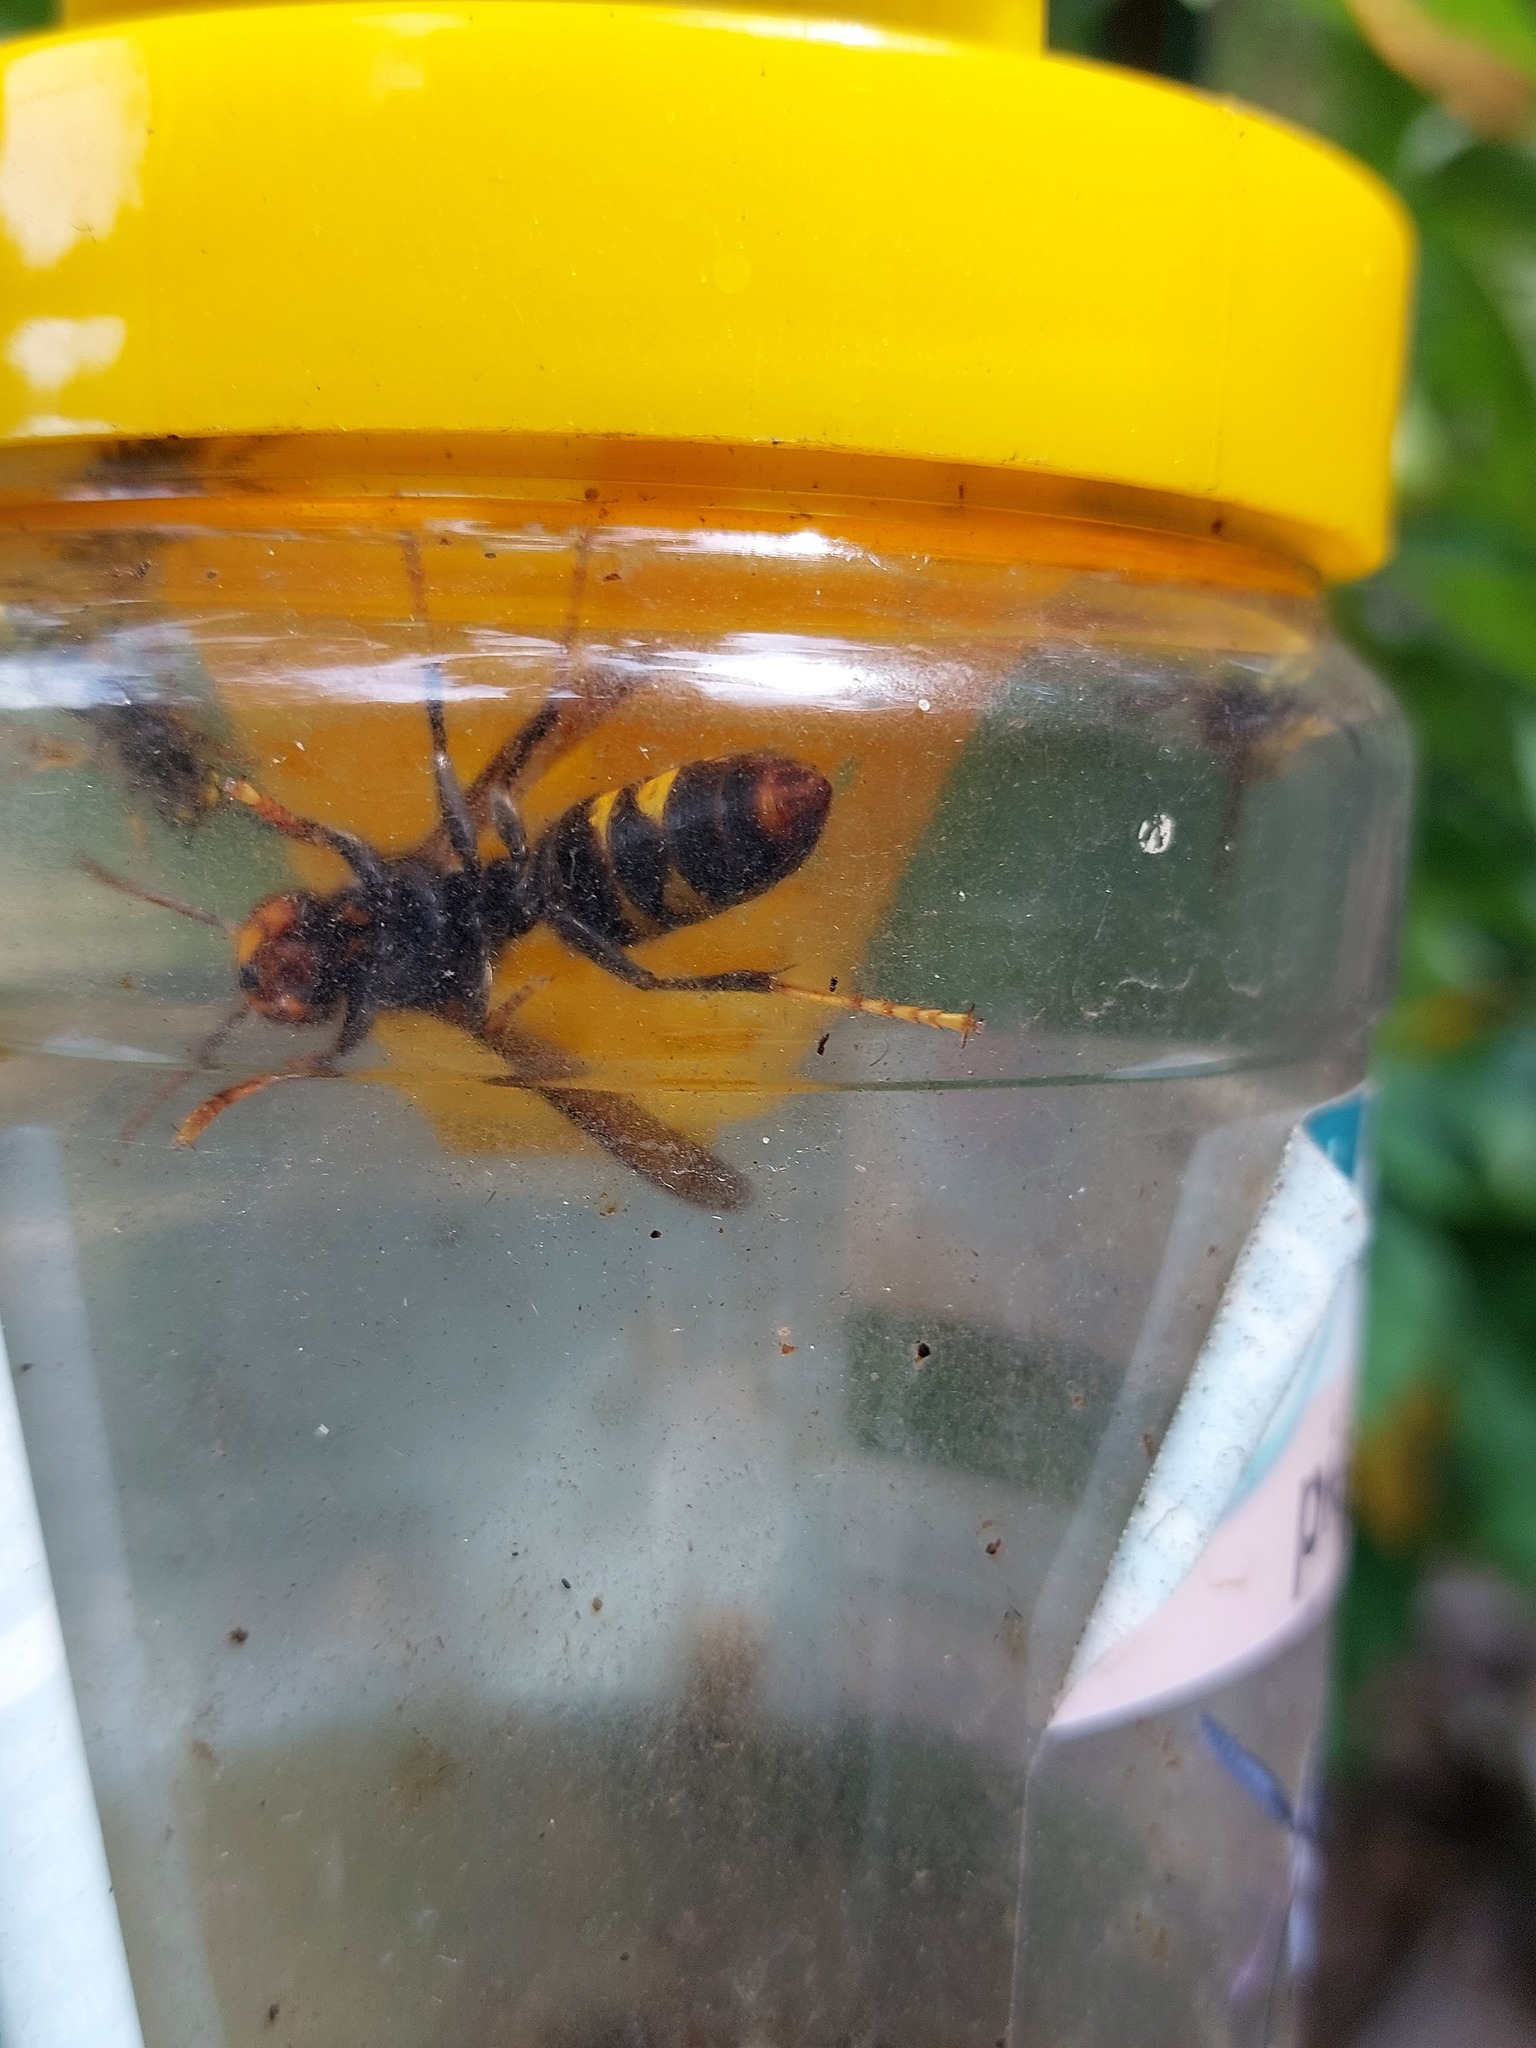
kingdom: Animalia
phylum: Arthropoda
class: Insecta
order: Hymenoptera
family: Vespidae
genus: Vespa
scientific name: Vespa velutina
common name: Asian hornet
